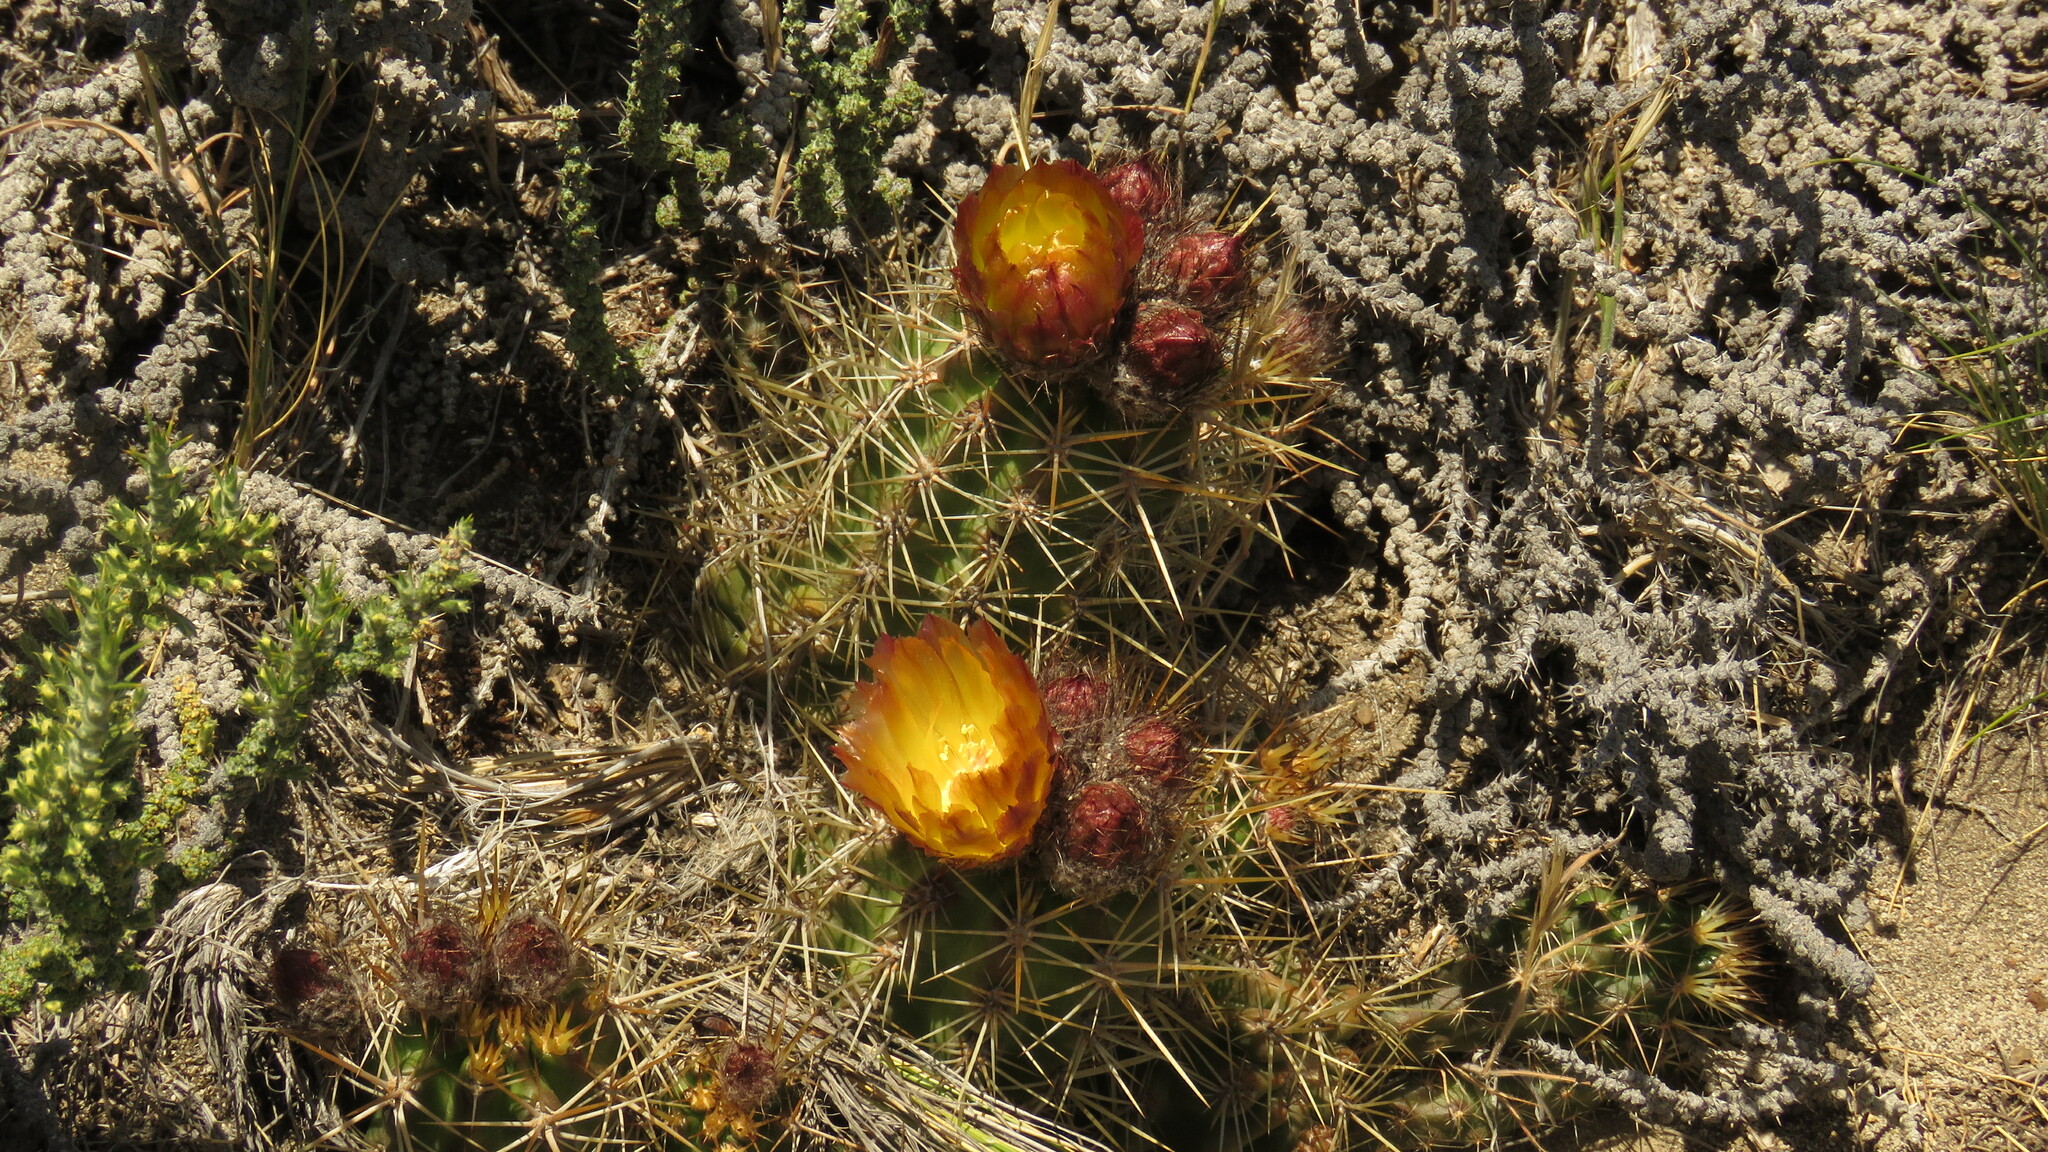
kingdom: Plantae
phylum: Tracheophyta
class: Magnoliopsida
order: Caryophyllales
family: Cactaceae
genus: Austrocactus
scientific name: Austrocactus coxii
